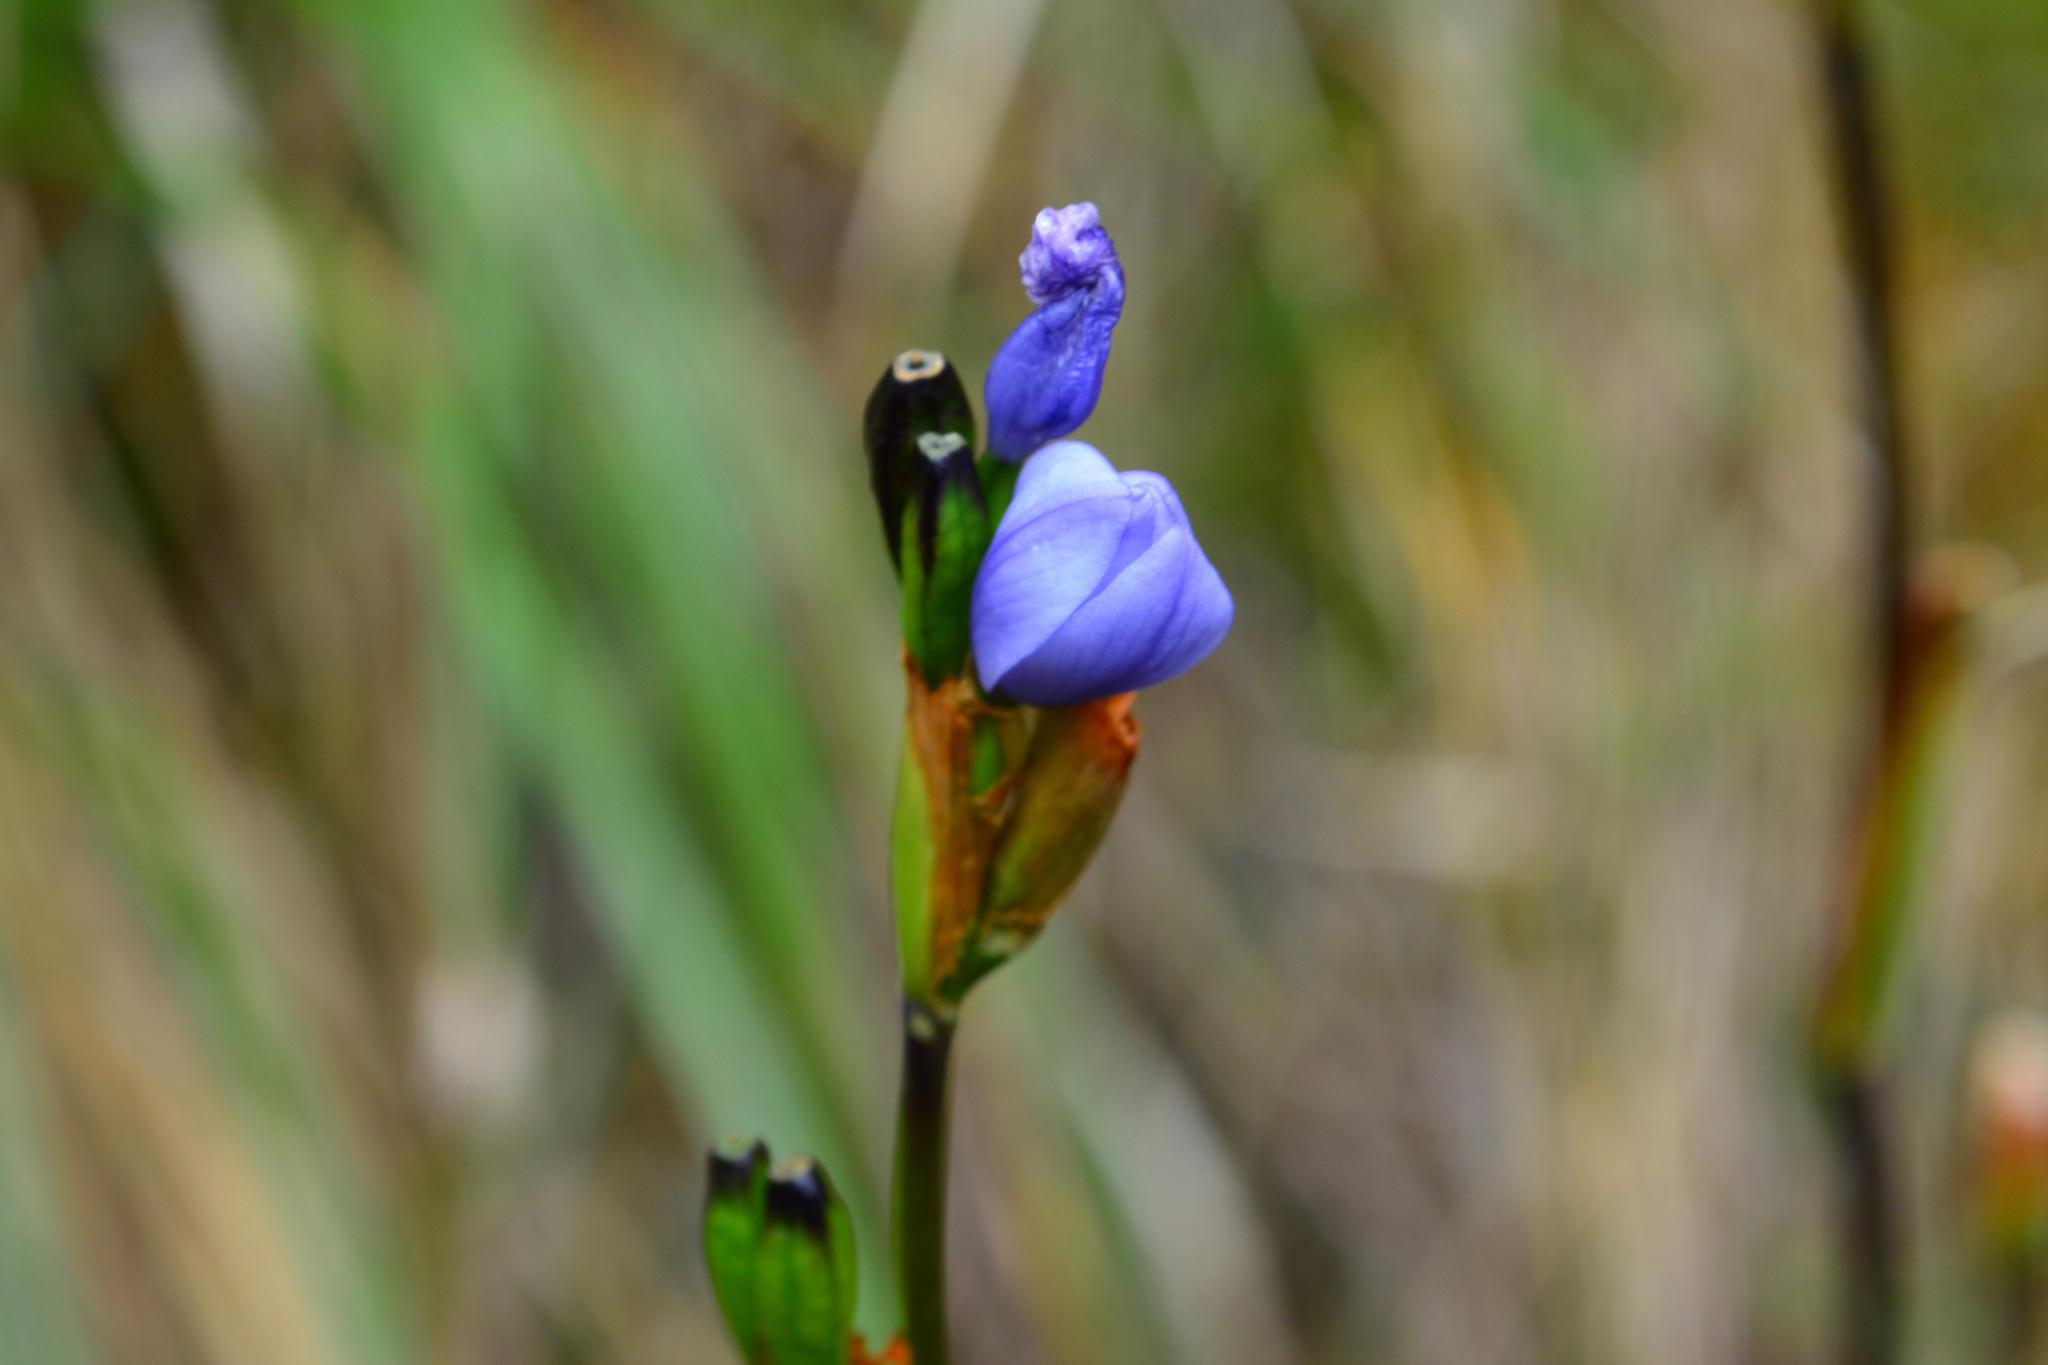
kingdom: Plantae
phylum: Tracheophyta
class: Liliopsida
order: Asparagales
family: Iridaceae
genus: Orthrosanthus
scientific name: Orthrosanthus chimboracensis
